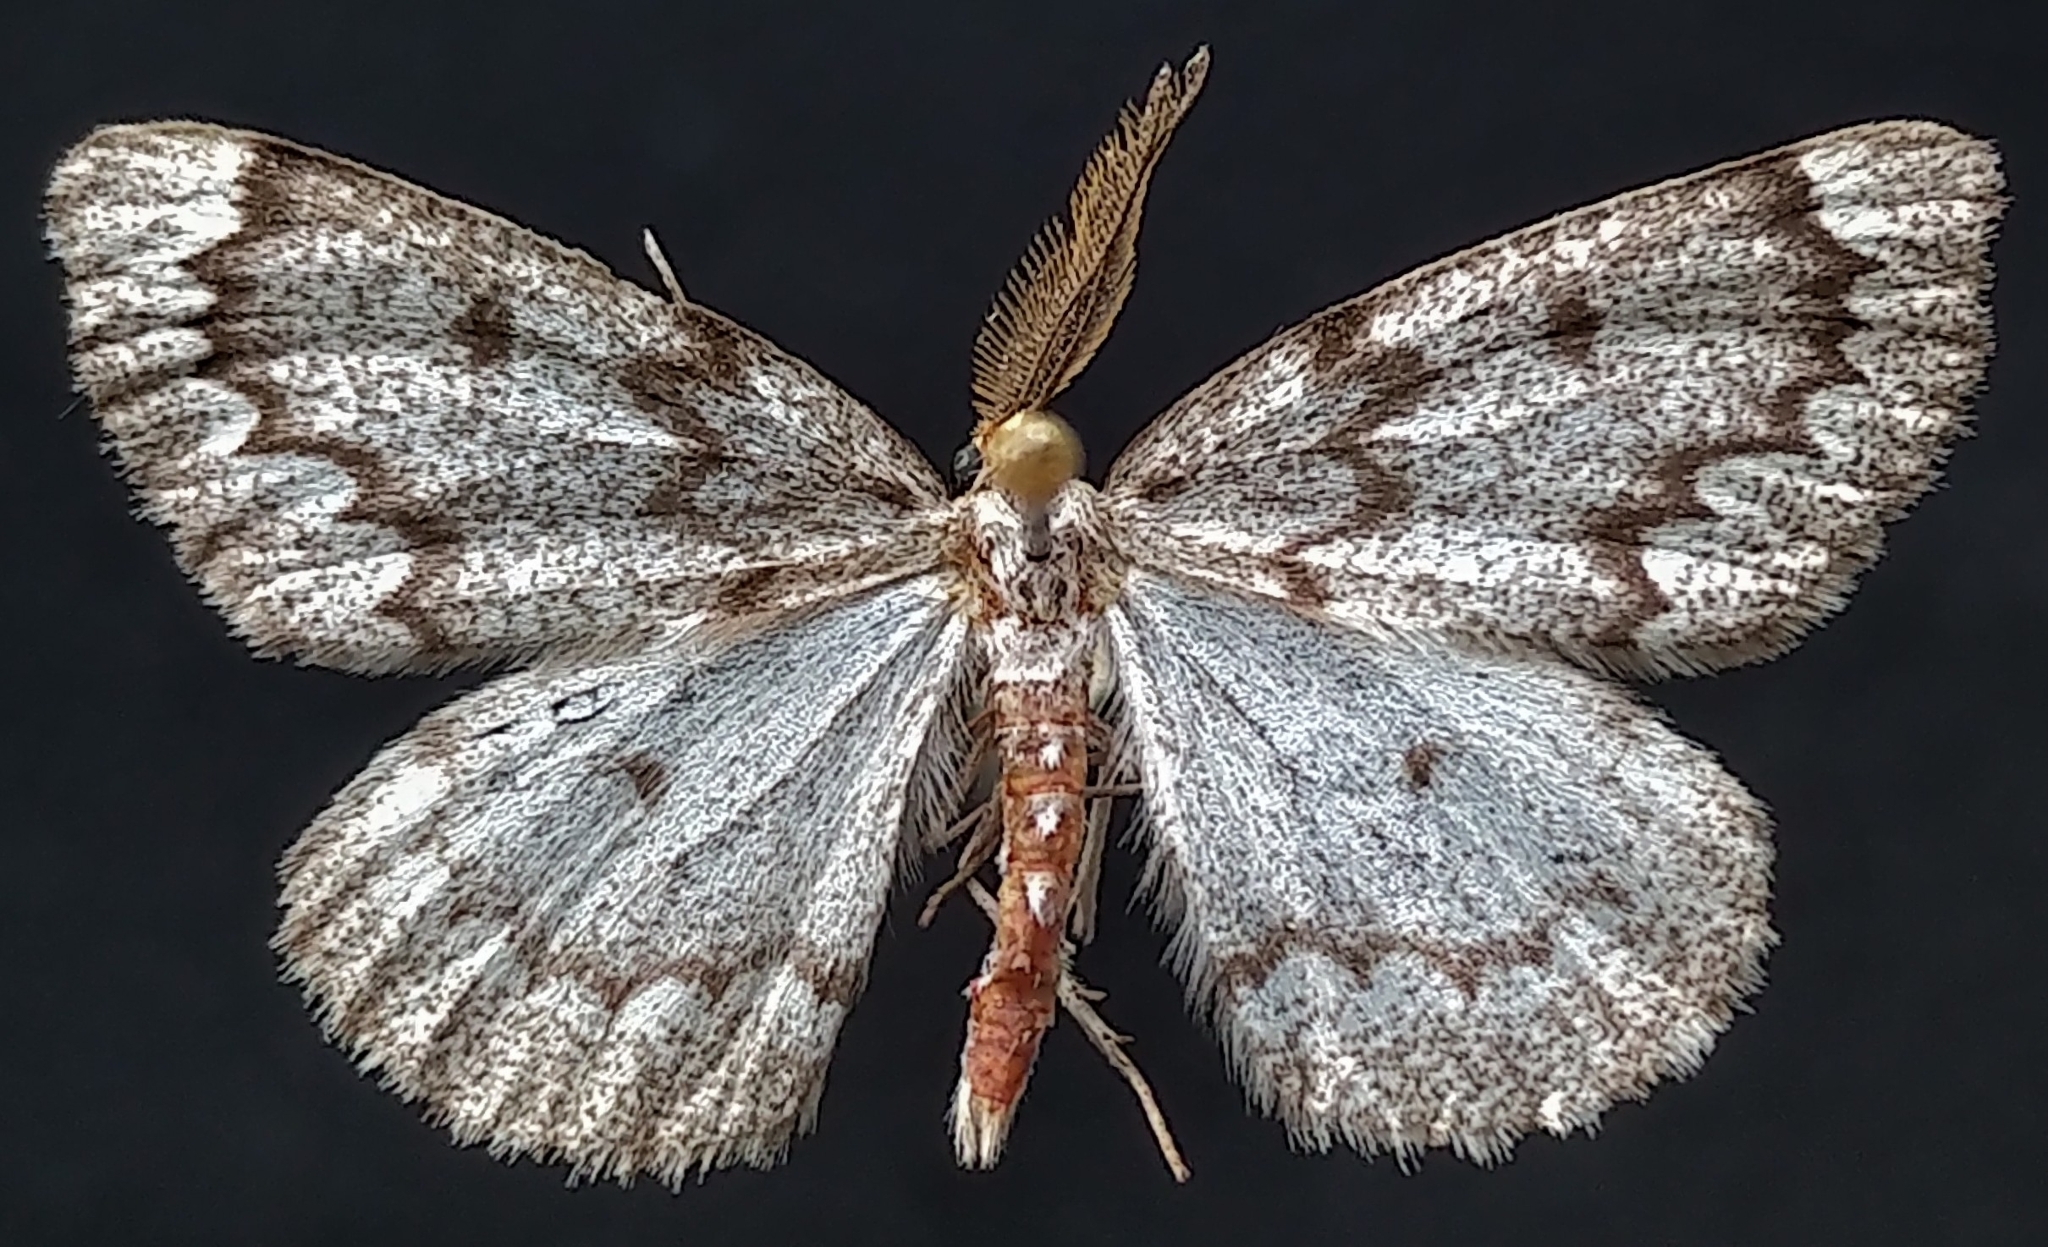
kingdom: Animalia
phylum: Arthropoda
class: Insecta
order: Lepidoptera
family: Geometridae
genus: Nepytia
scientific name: Nepytia canosaria
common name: False hemlock looper
